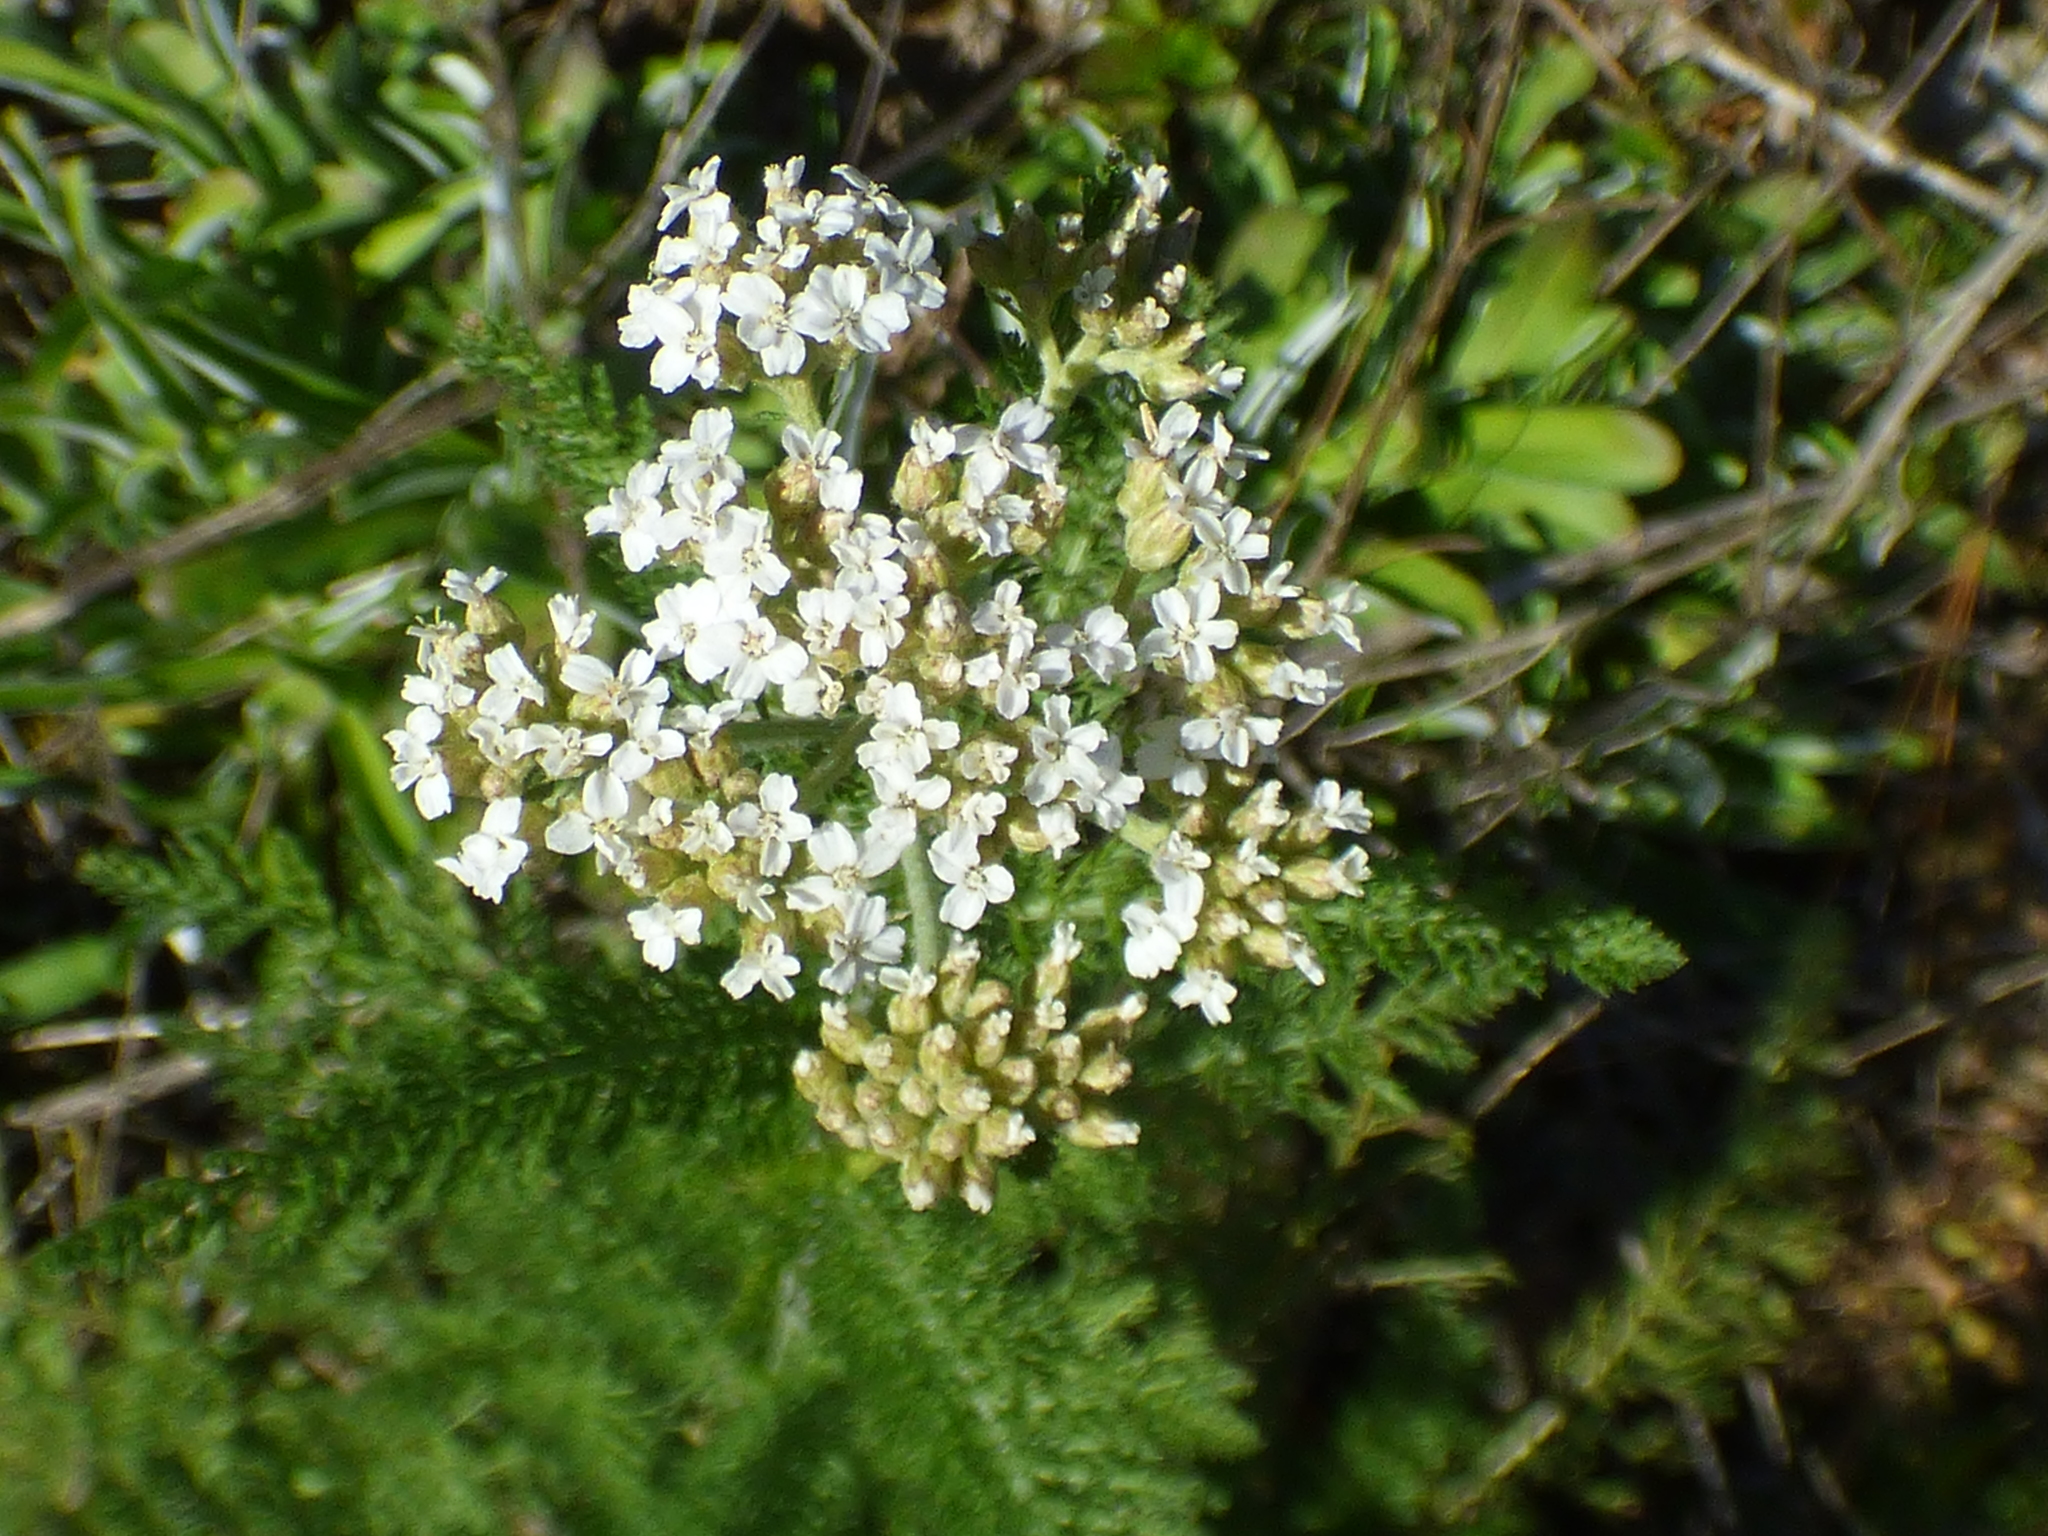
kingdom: Plantae
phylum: Tracheophyta
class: Magnoliopsida
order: Asterales
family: Asteraceae
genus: Achillea
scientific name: Achillea millefolium
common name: Yarrow
